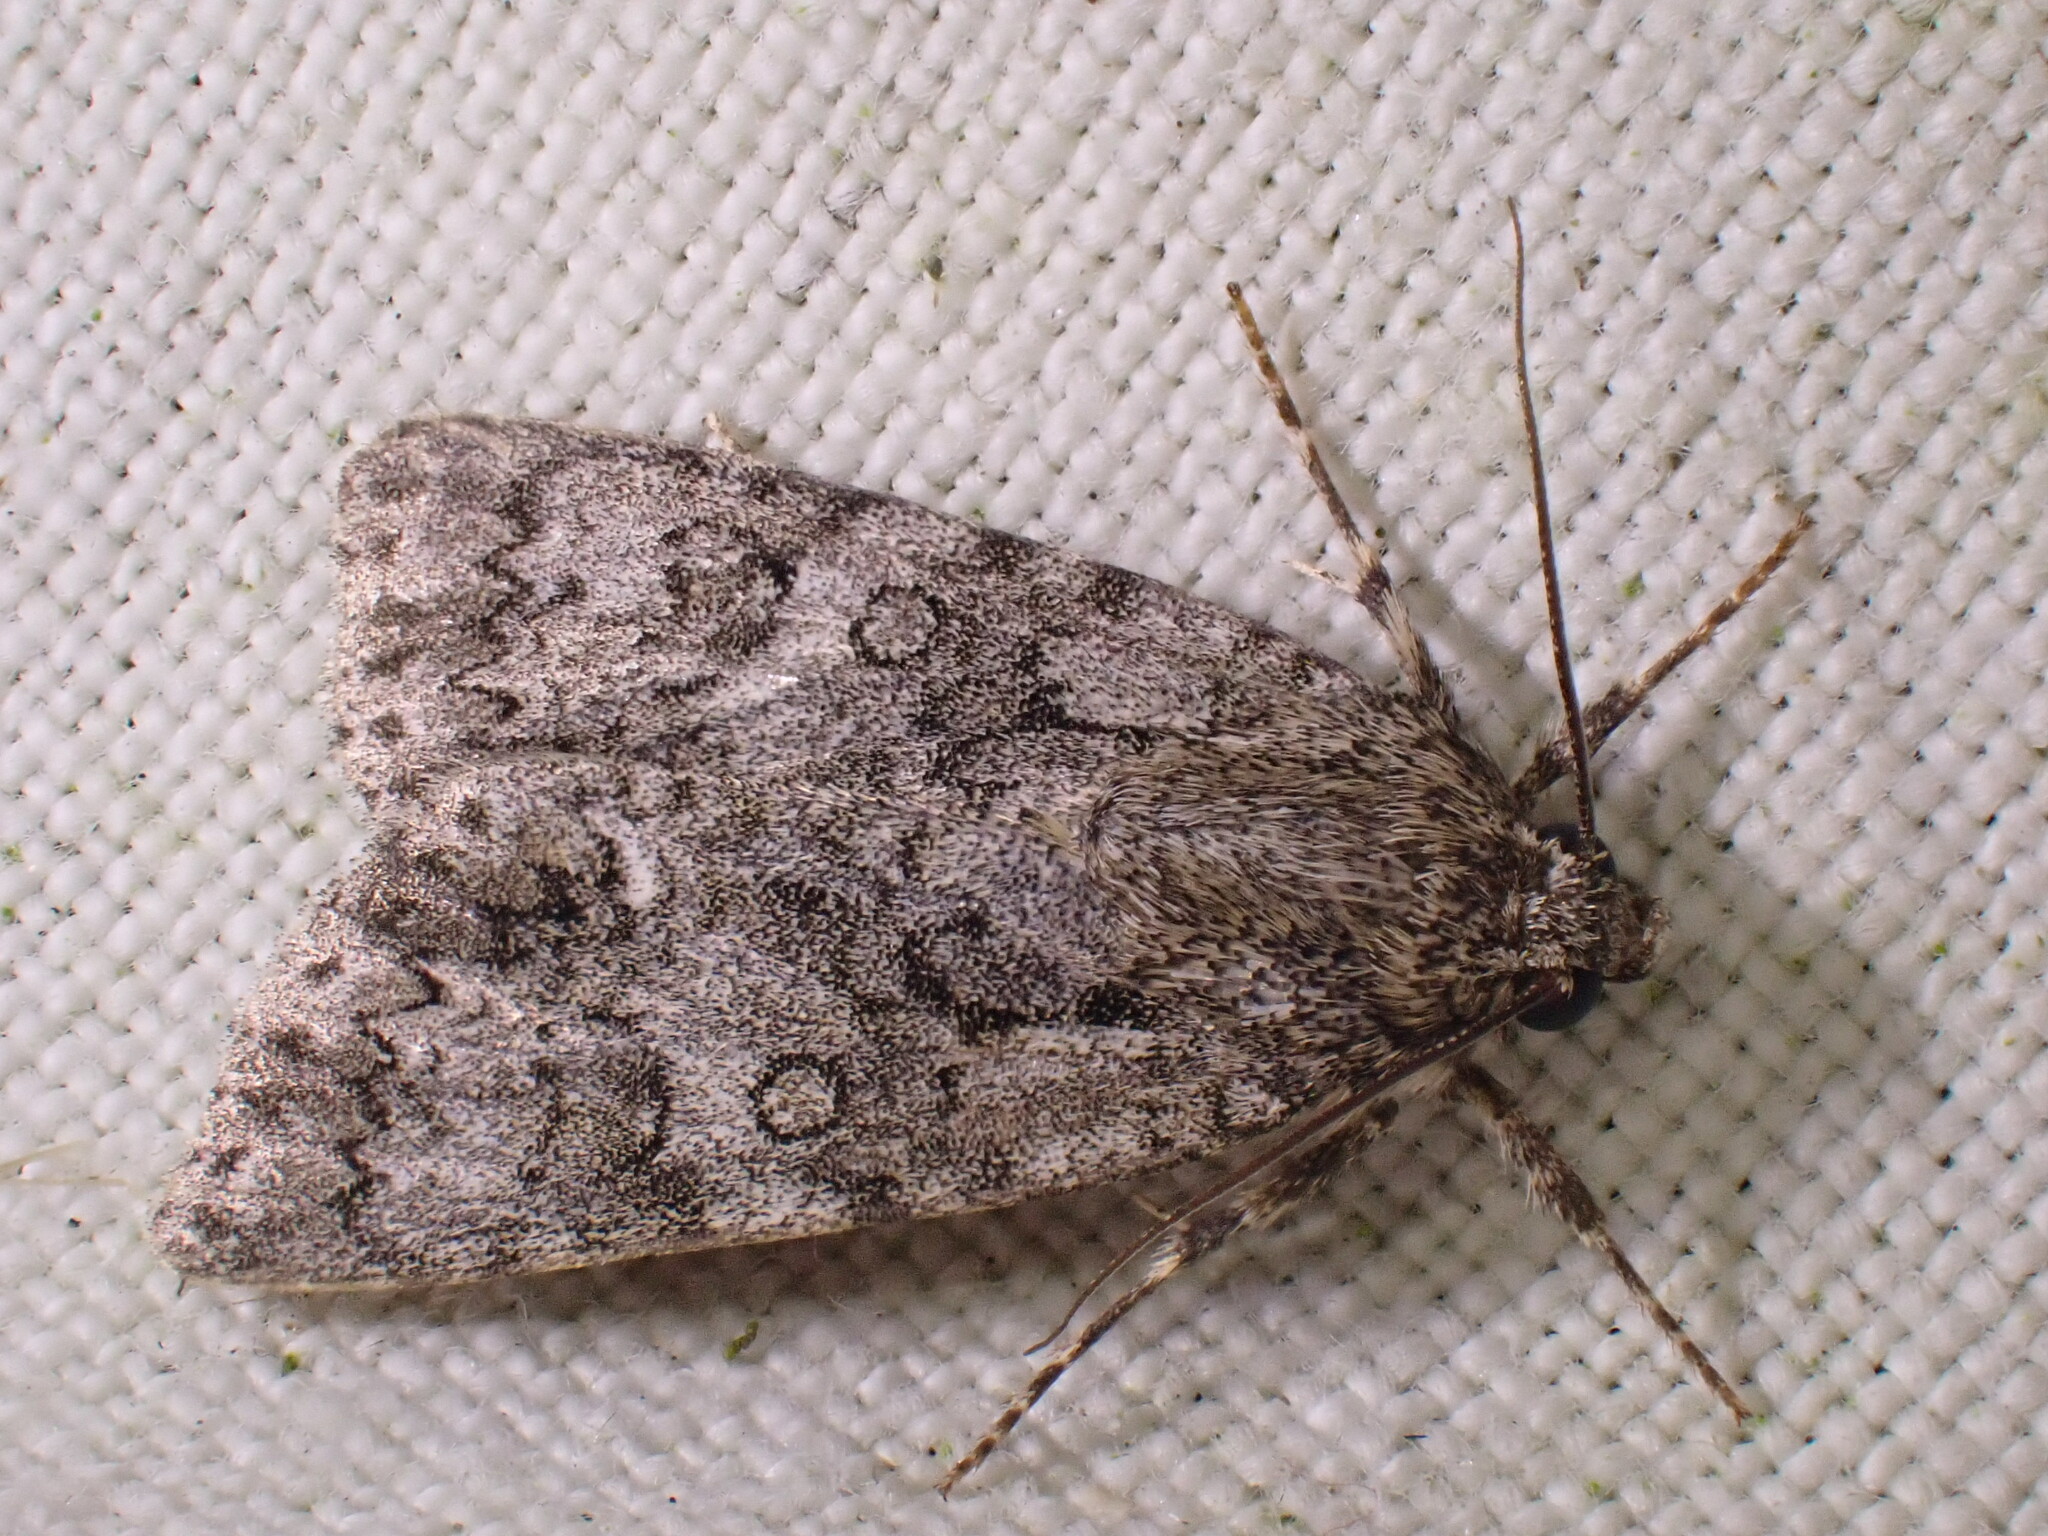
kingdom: Animalia
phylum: Arthropoda
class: Insecta
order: Lepidoptera
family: Noctuidae
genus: Acronicta
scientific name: Acronicta rumicis
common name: Knot grass
